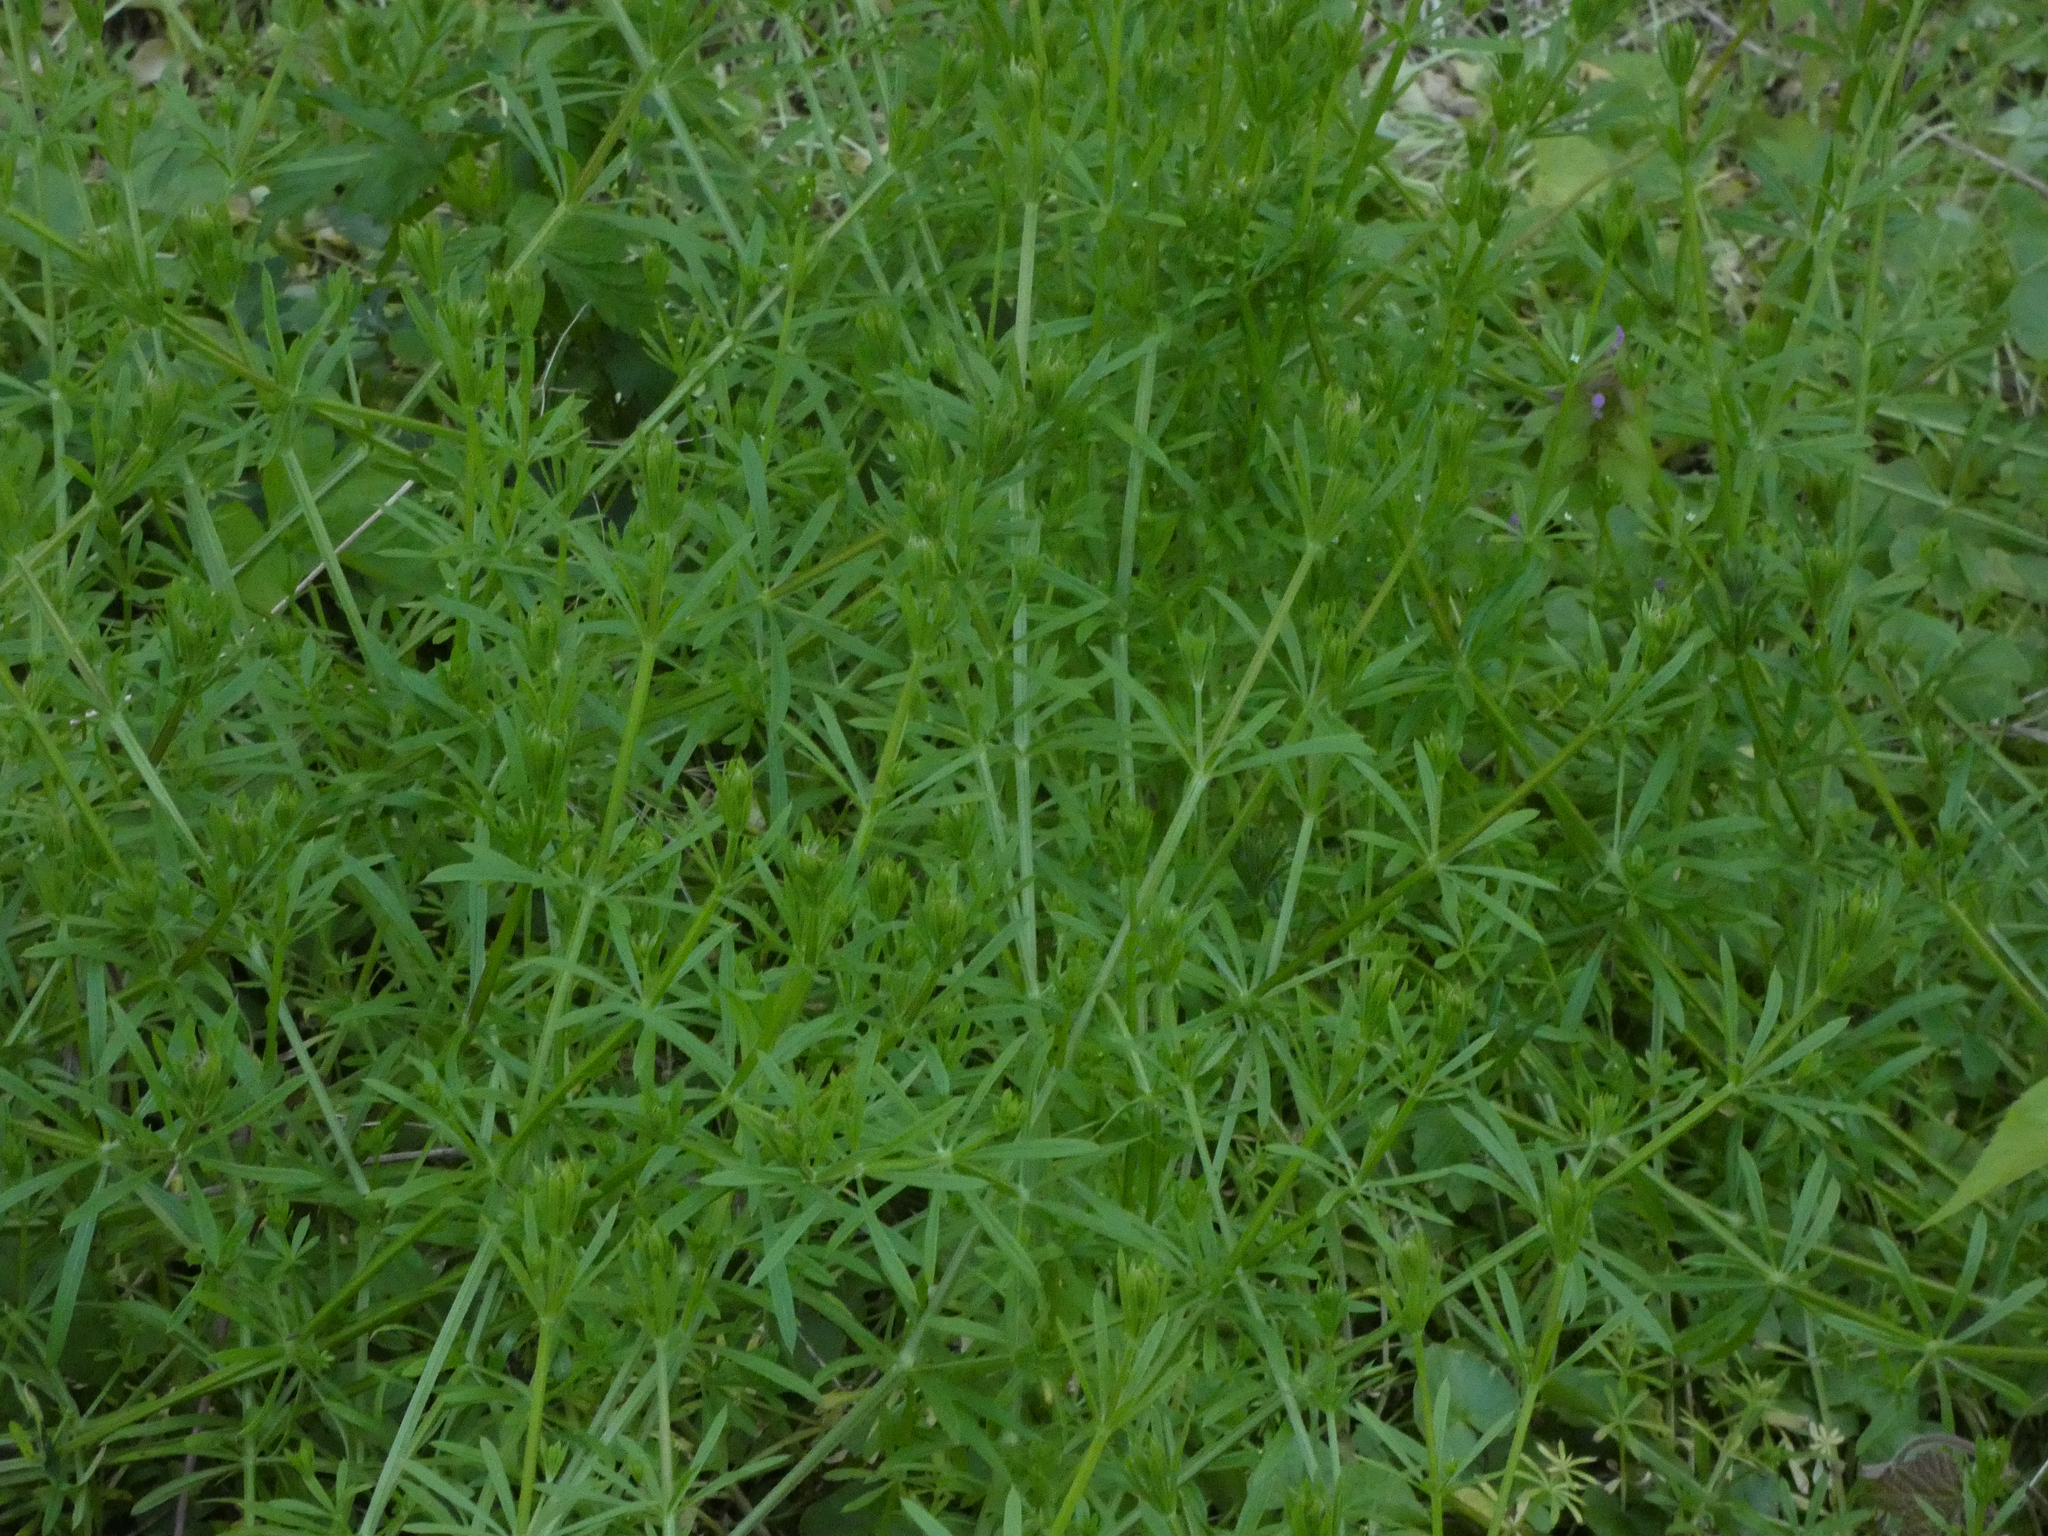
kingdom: Plantae
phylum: Tracheophyta
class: Magnoliopsida
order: Gentianales
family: Rubiaceae
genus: Galium
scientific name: Galium aparine
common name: Cleavers
